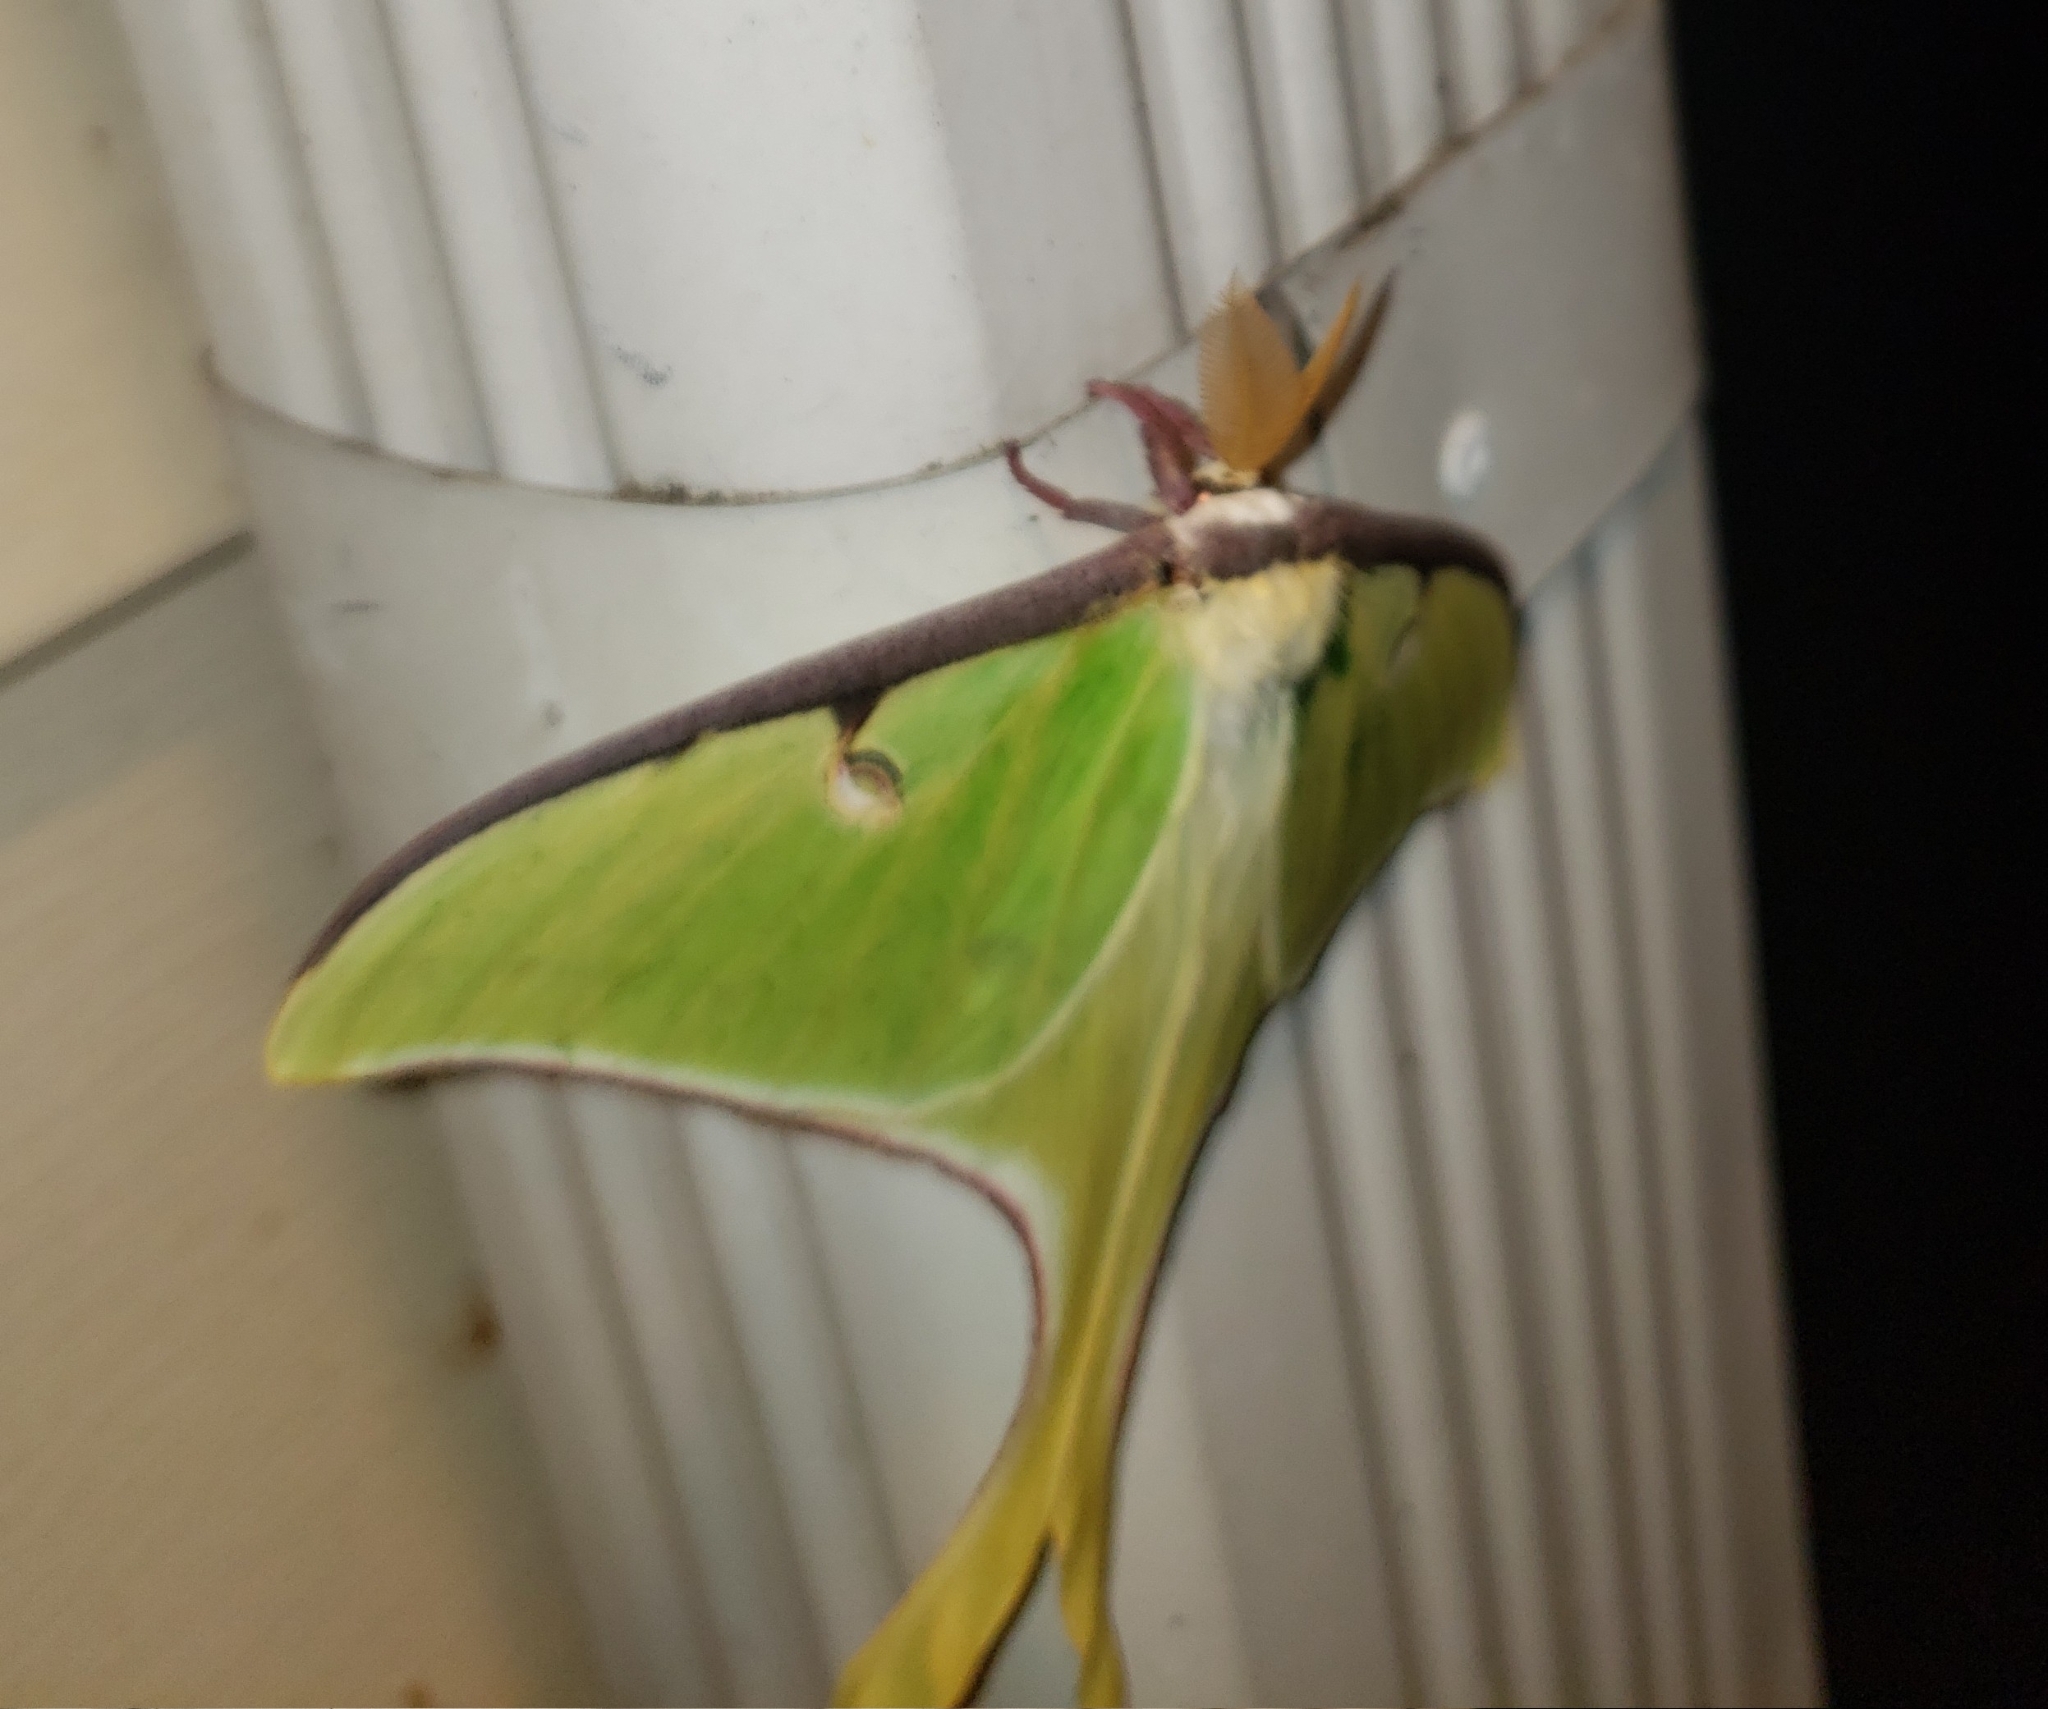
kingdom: Animalia
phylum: Arthropoda
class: Insecta
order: Lepidoptera
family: Saturniidae
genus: Actias
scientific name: Actias luna
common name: Luna moth
